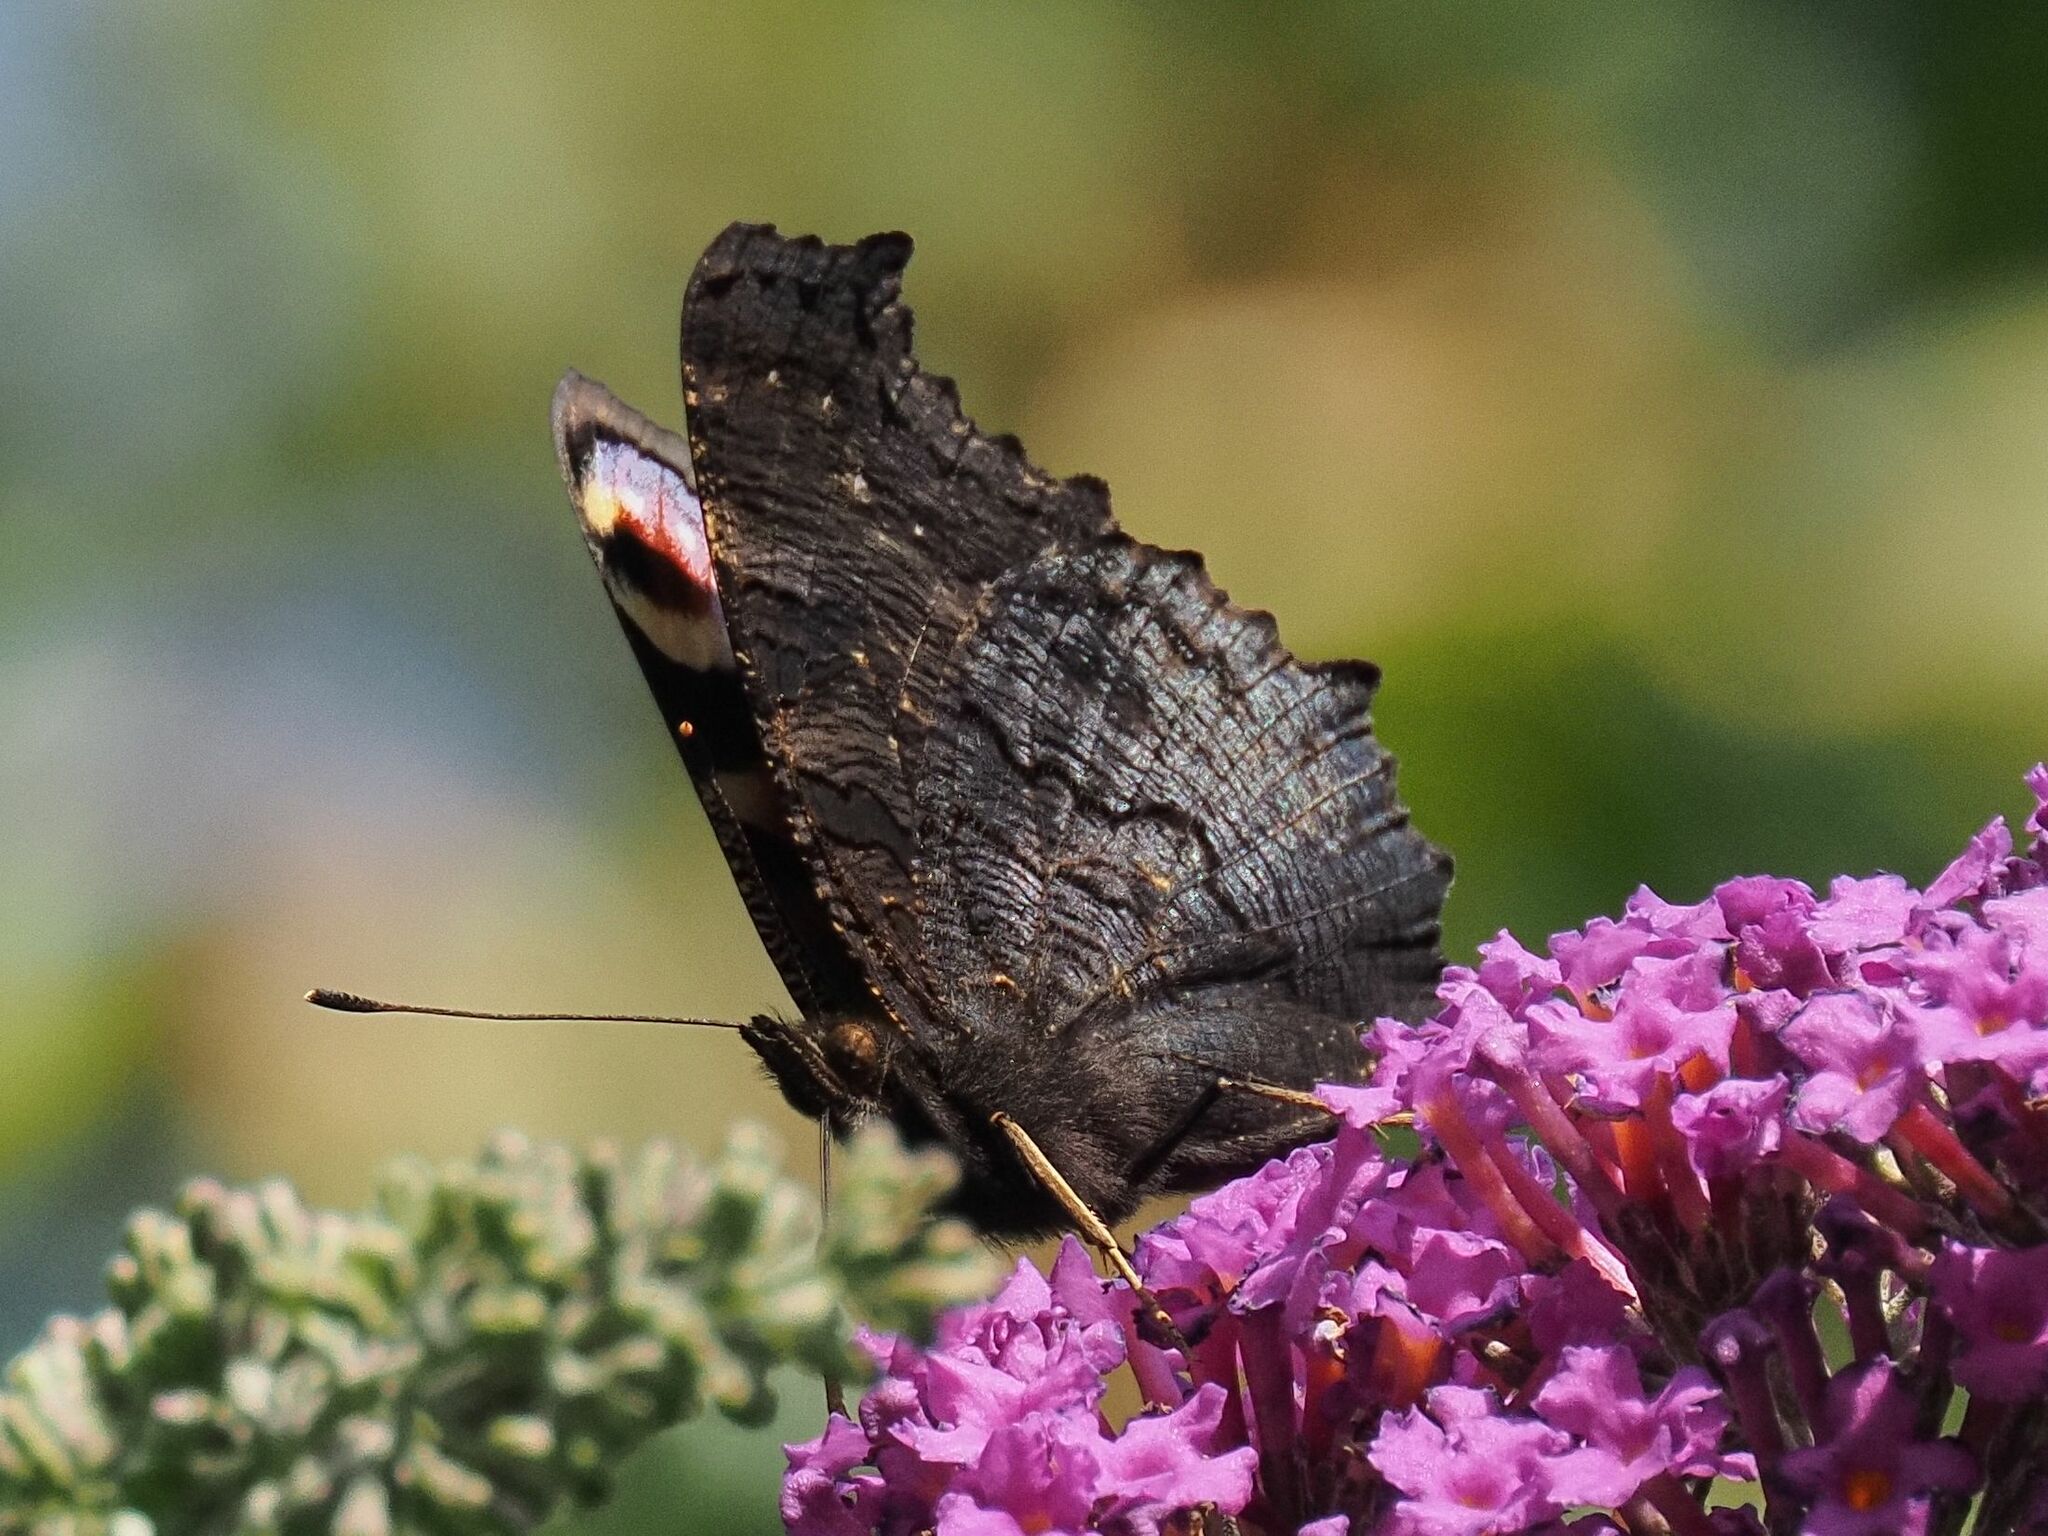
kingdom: Animalia
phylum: Arthropoda
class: Insecta
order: Lepidoptera
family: Nymphalidae
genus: Aglais
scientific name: Aglais io
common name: Peacock
